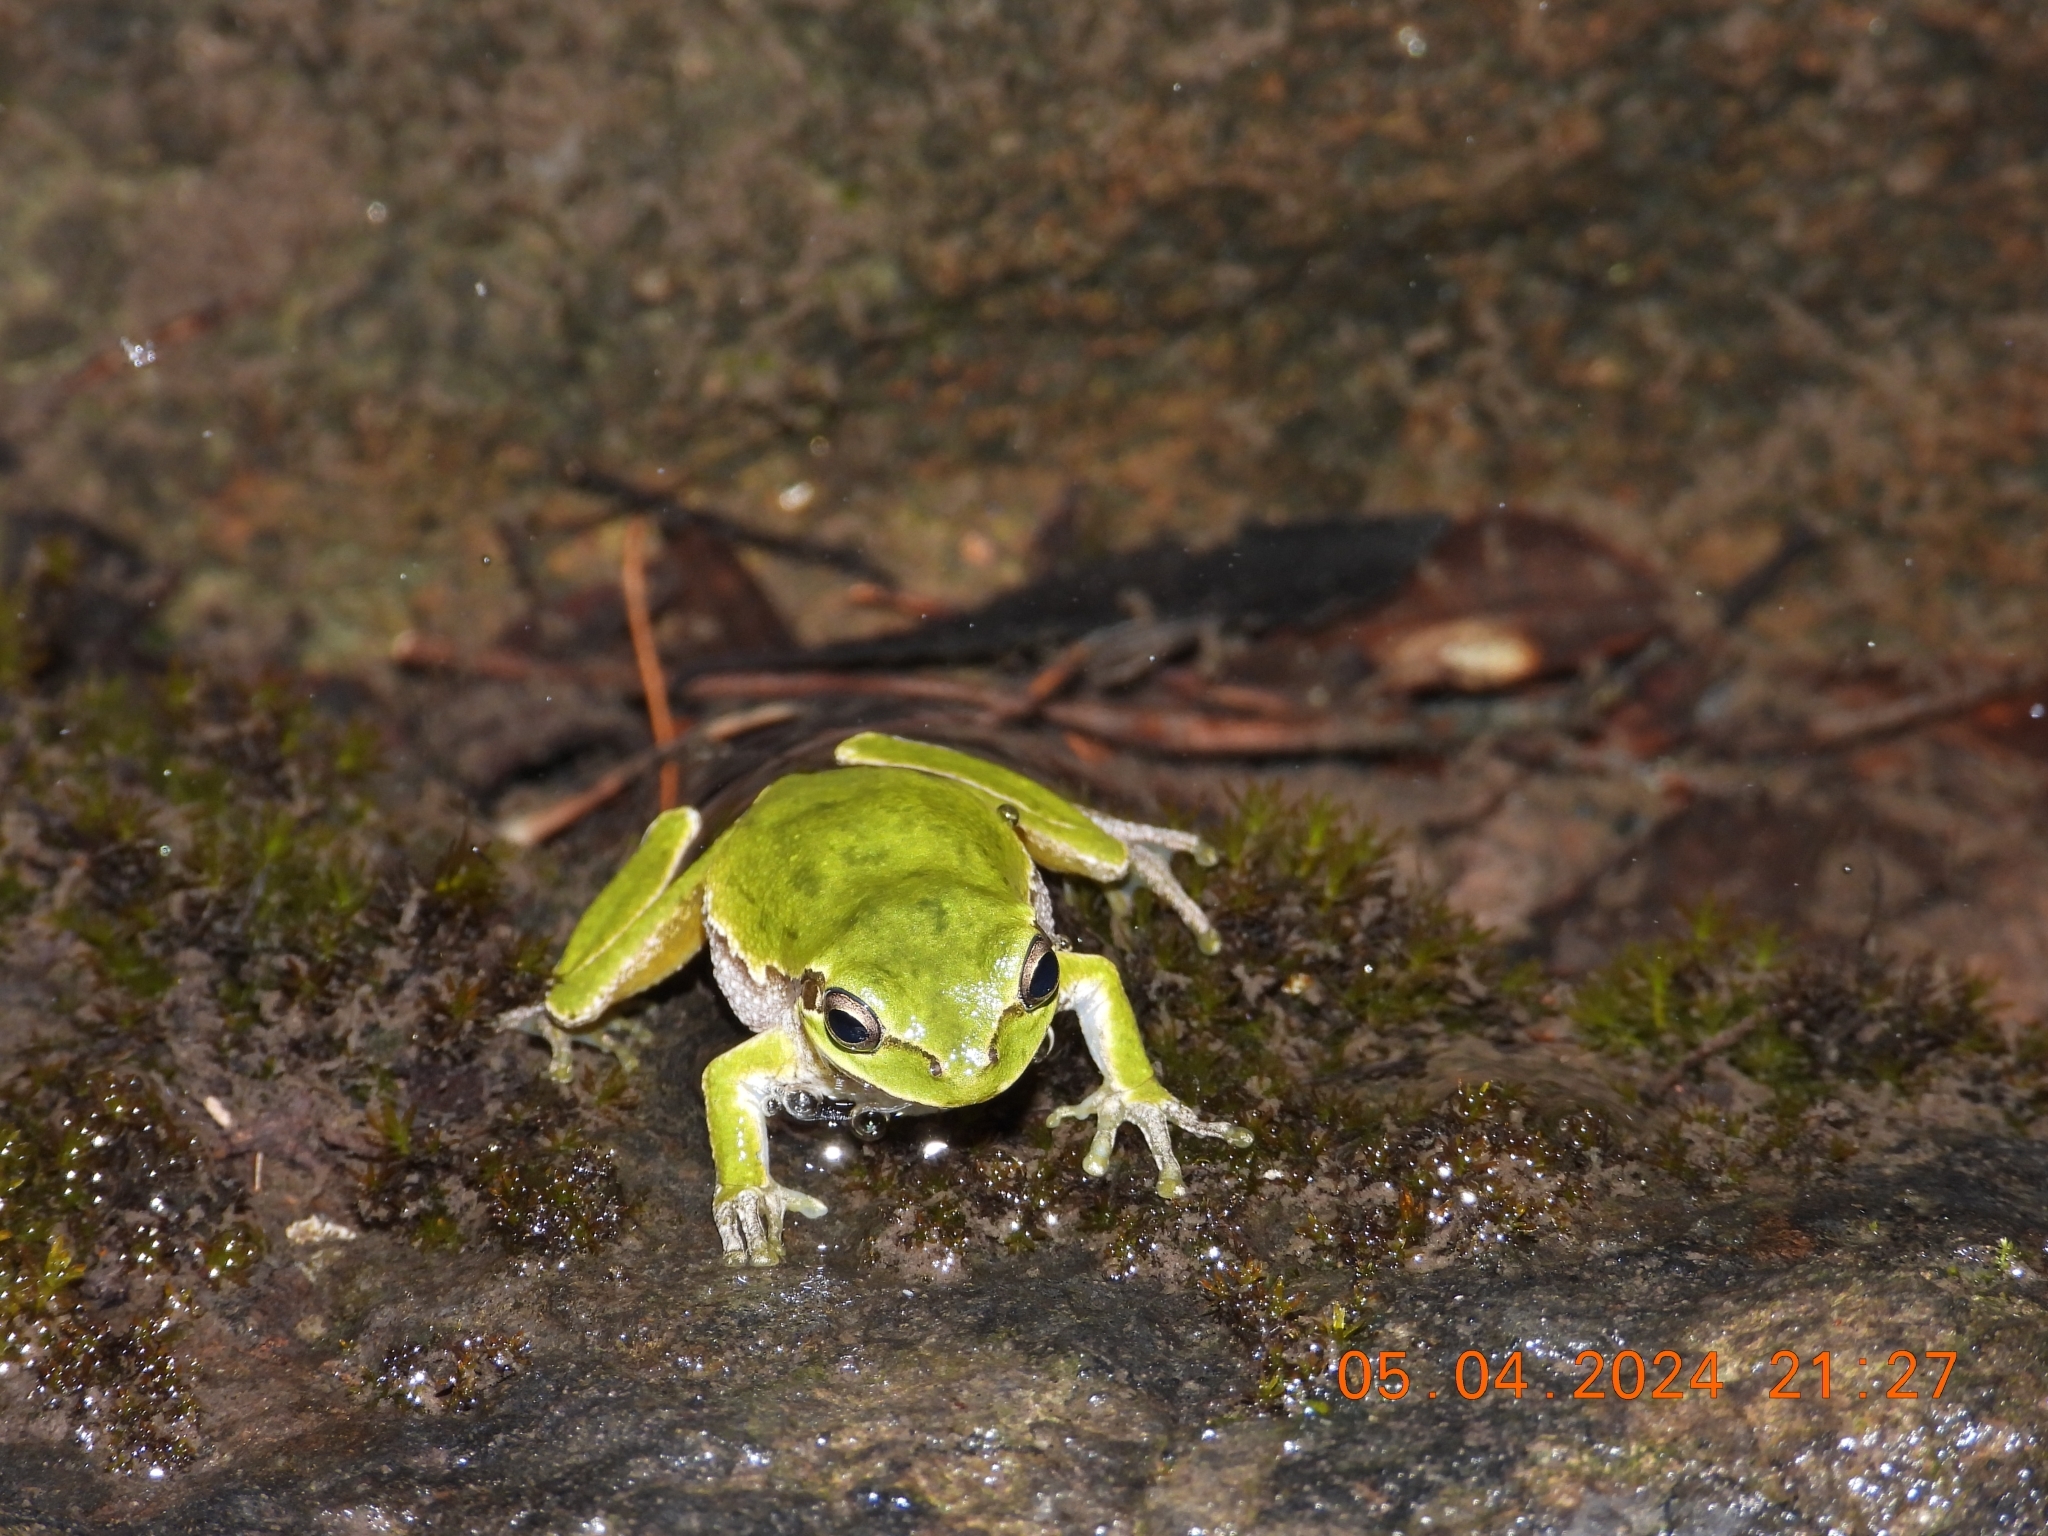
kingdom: Animalia
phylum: Chordata
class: Amphibia
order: Anura
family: Hylidae
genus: Hyla
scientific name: Hyla sarda
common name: Sardinian tree frog
